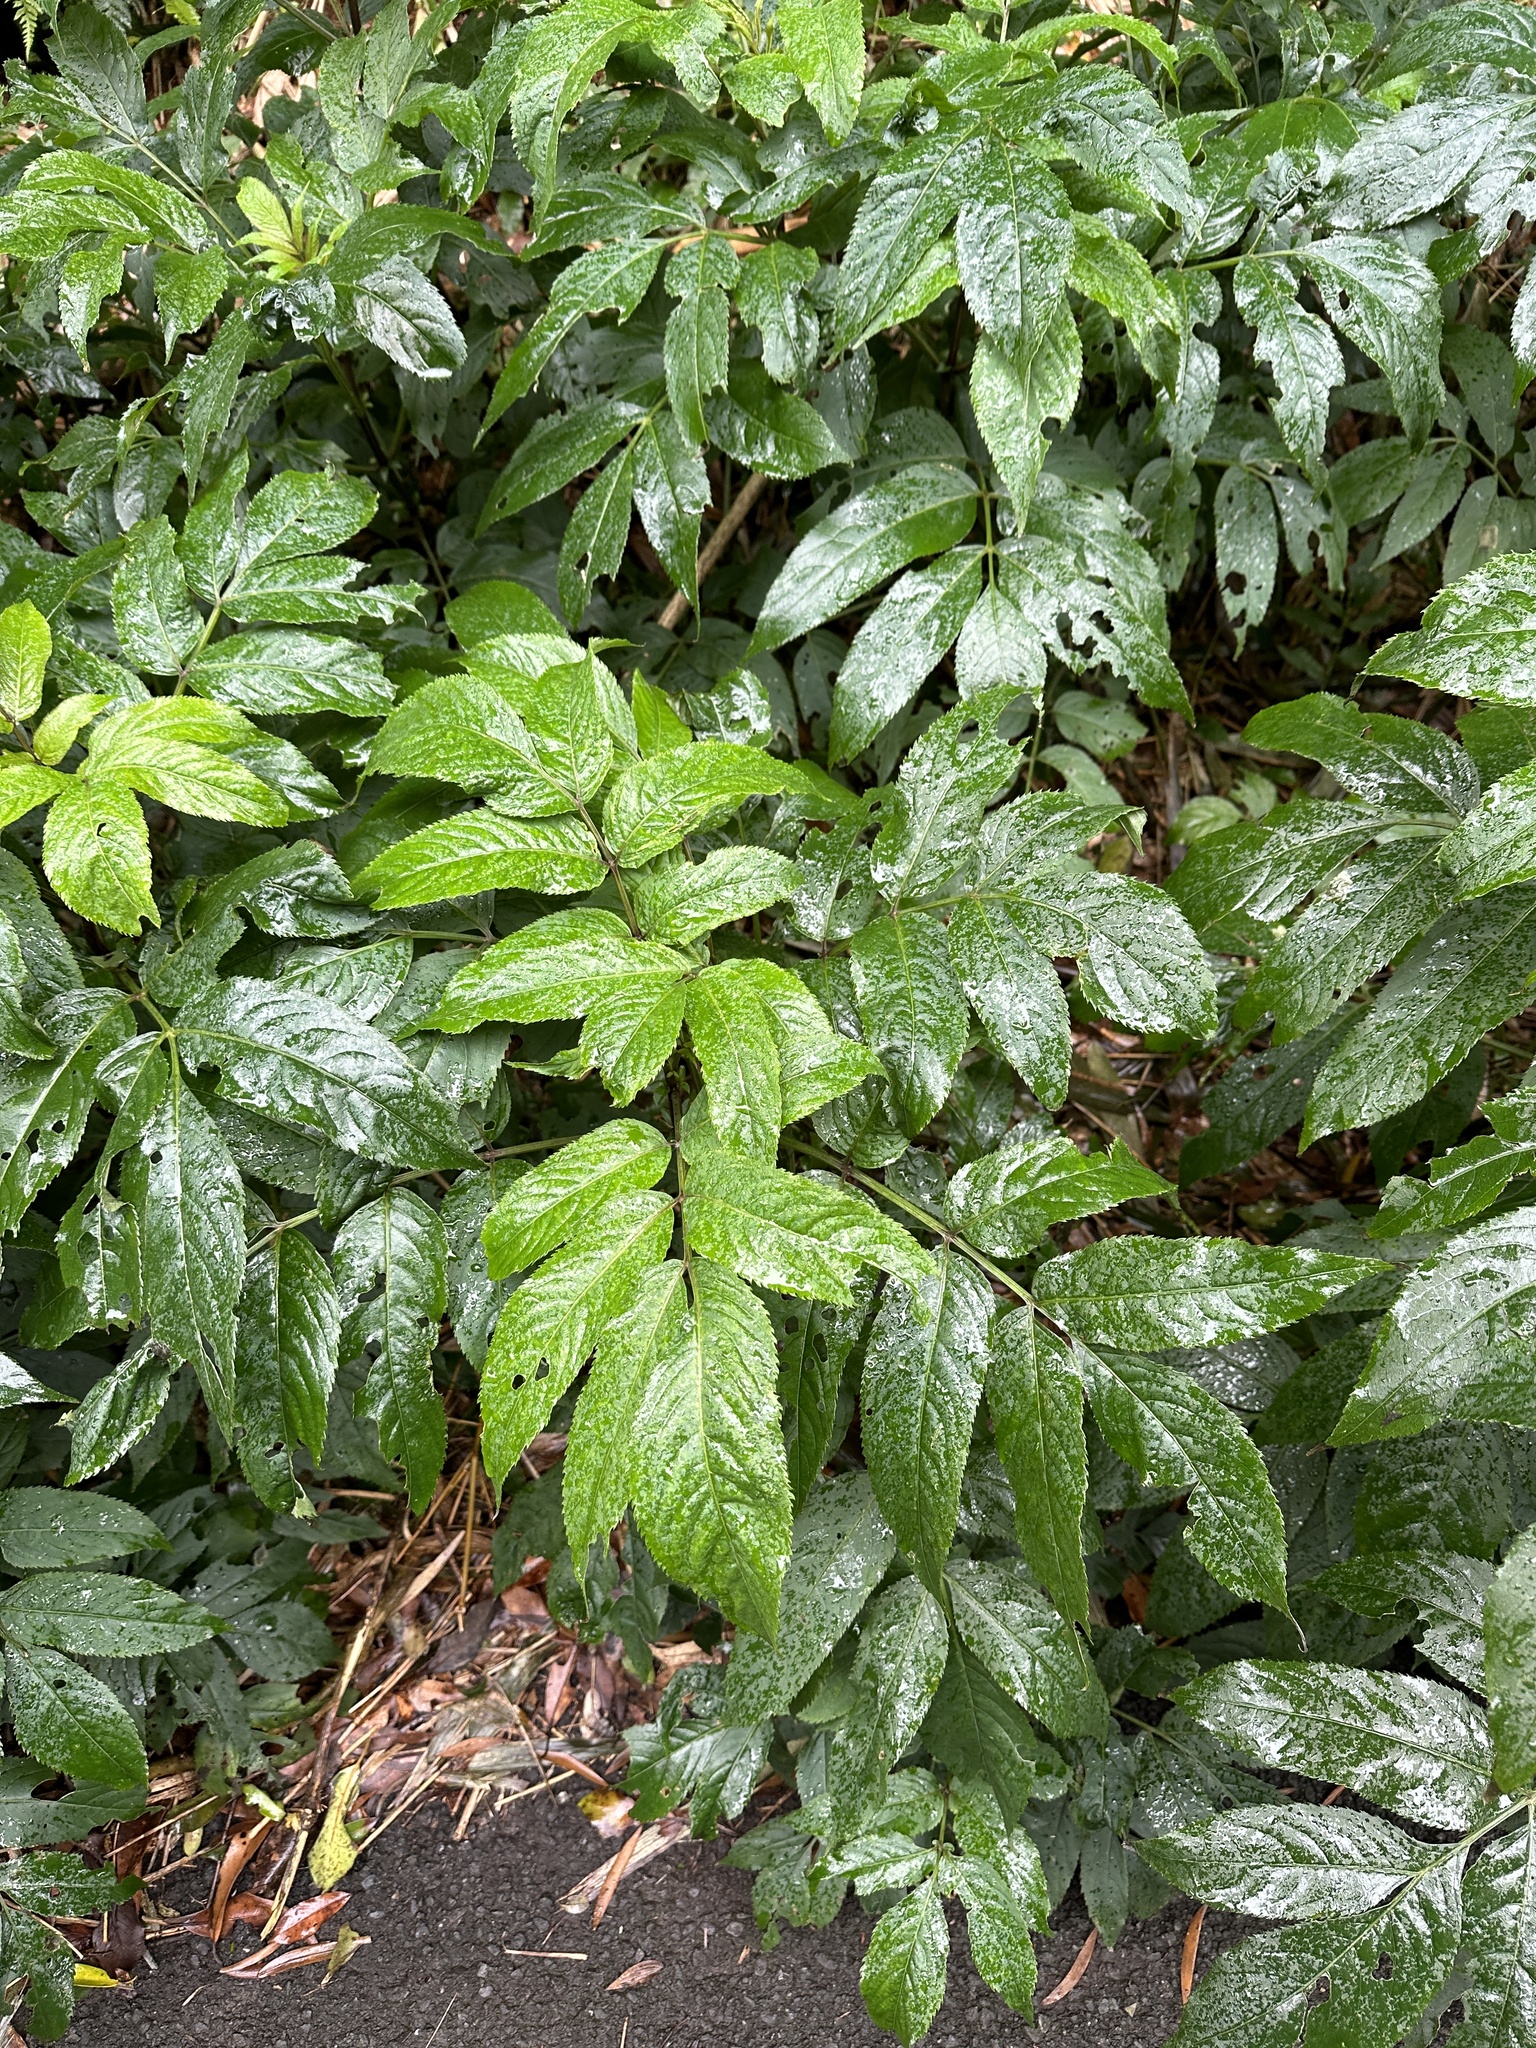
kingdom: Plantae
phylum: Tracheophyta
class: Magnoliopsida
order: Dipsacales
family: Viburnaceae
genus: Sambucus
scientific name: Sambucus javanica
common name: Chinese elder
